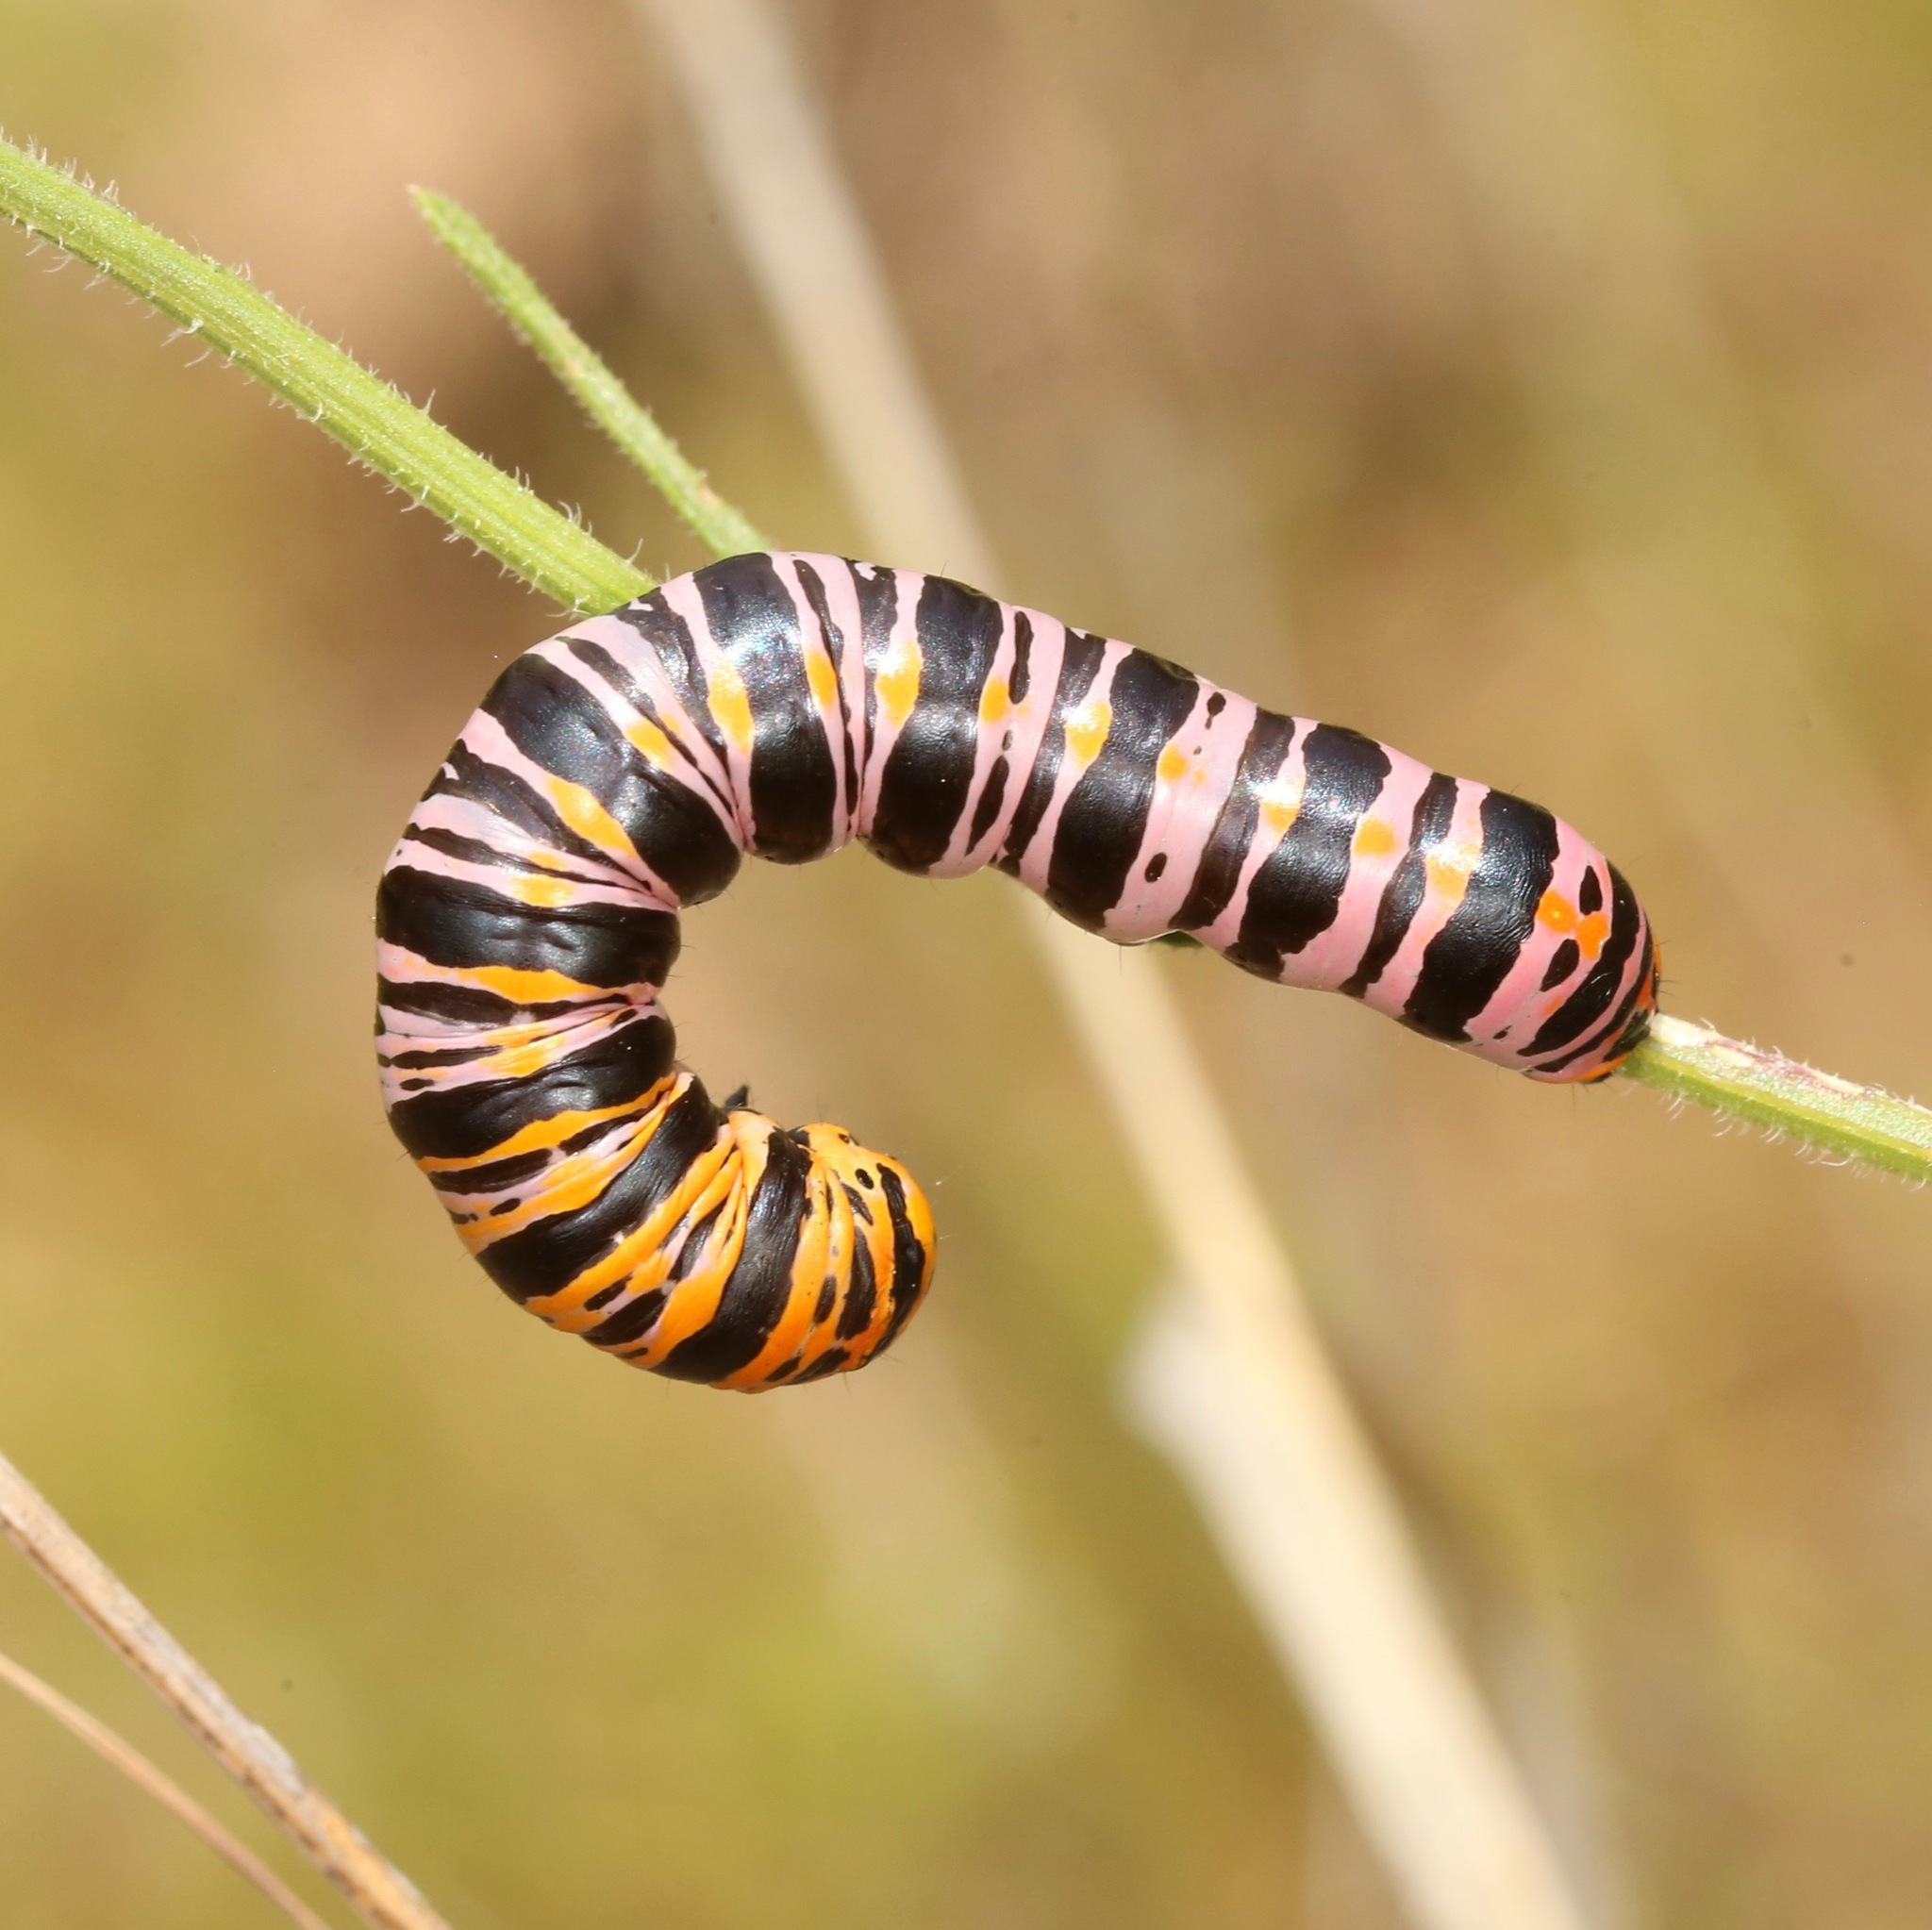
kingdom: Animalia
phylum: Arthropoda
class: Insecta
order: Lepidoptera
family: Noctuidae
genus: Cucullia
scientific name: Cucullia lilacina
